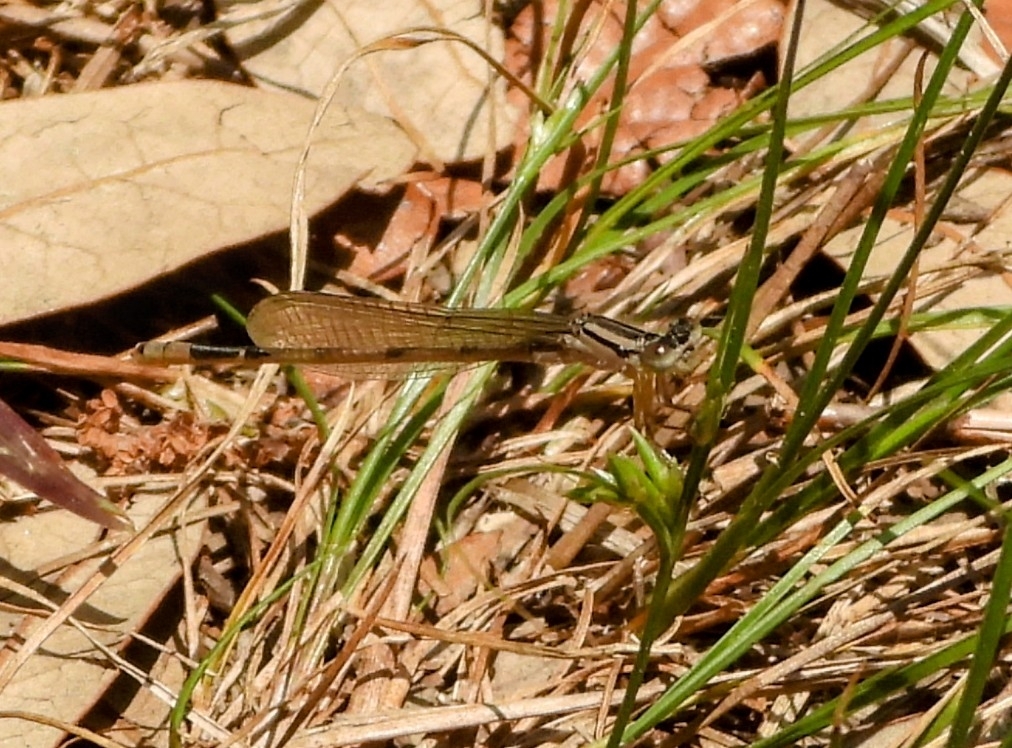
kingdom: Animalia
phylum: Arthropoda
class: Insecta
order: Odonata
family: Coenagrionidae
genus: Enallagma
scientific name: Enallagma durum
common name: Big bluet
